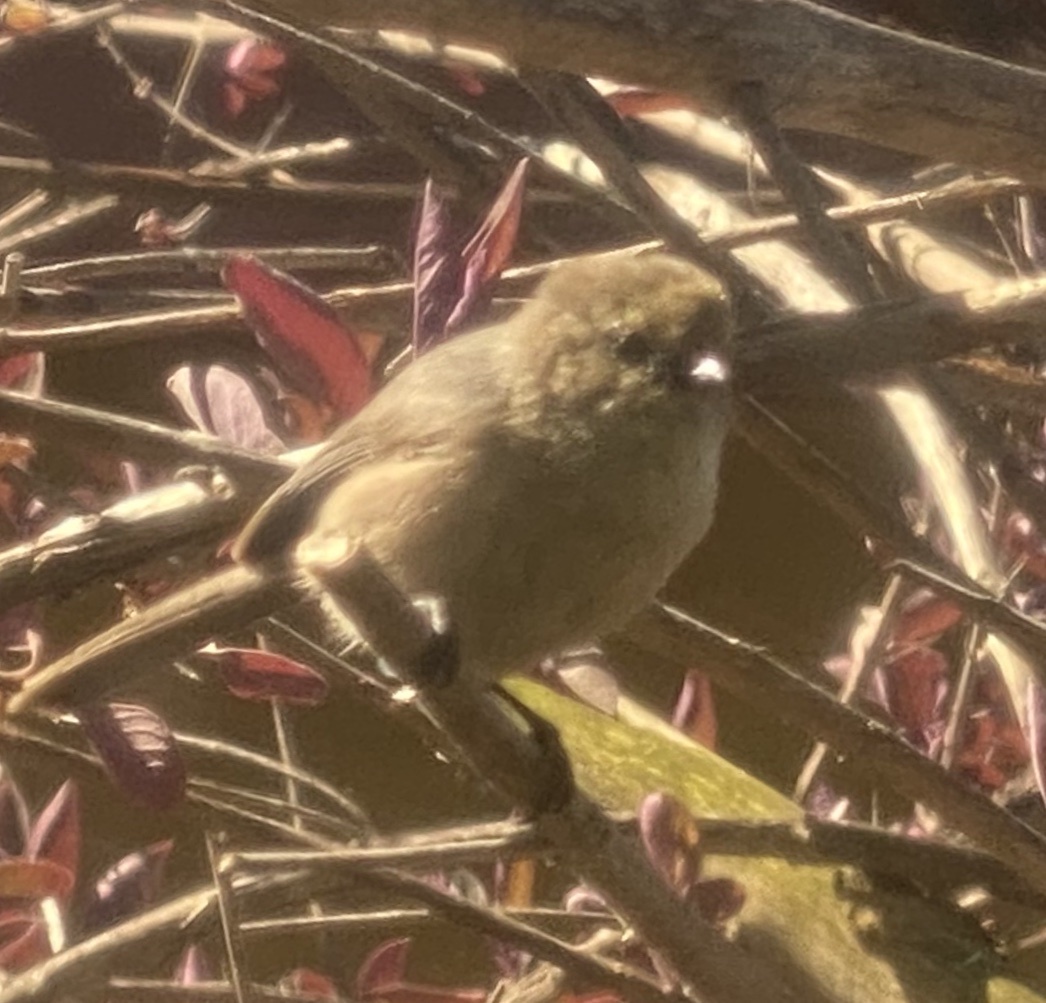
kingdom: Animalia
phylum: Chordata
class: Aves
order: Passeriformes
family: Aegithalidae
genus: Psaltriparus
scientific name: Psaltriparus minimus
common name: American bushtit
